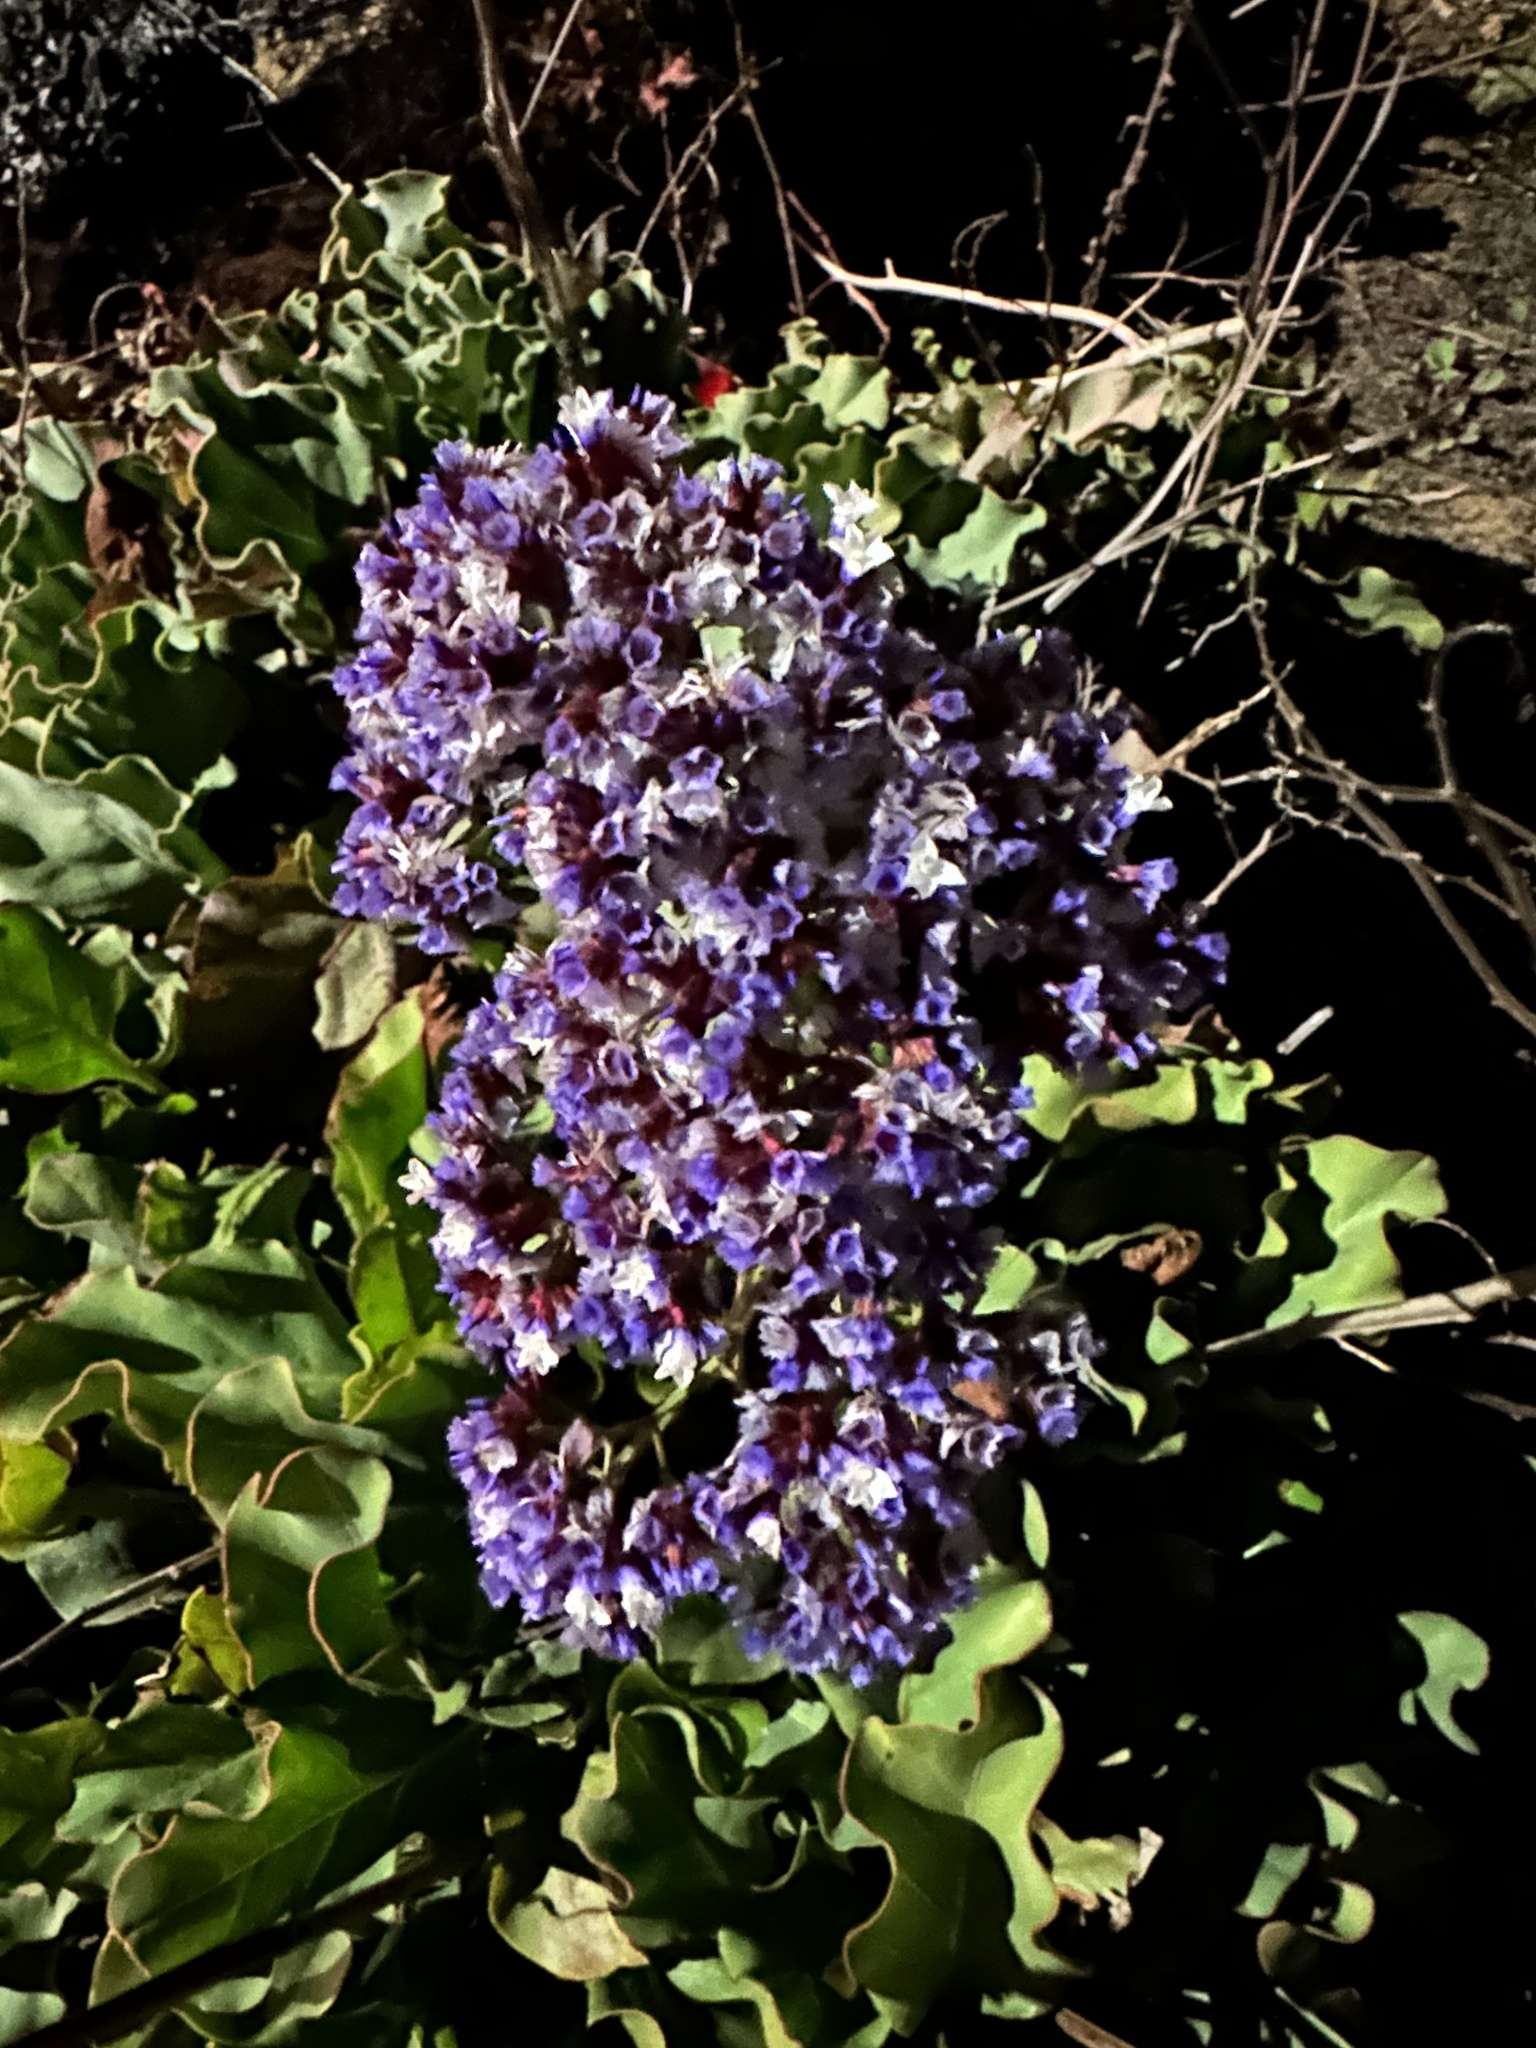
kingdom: Plantae
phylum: Tracheophyta
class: Magnoliopsida
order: Caryophyllales
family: Plumbaginaceae
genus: Limonium
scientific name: Limonium perezii
